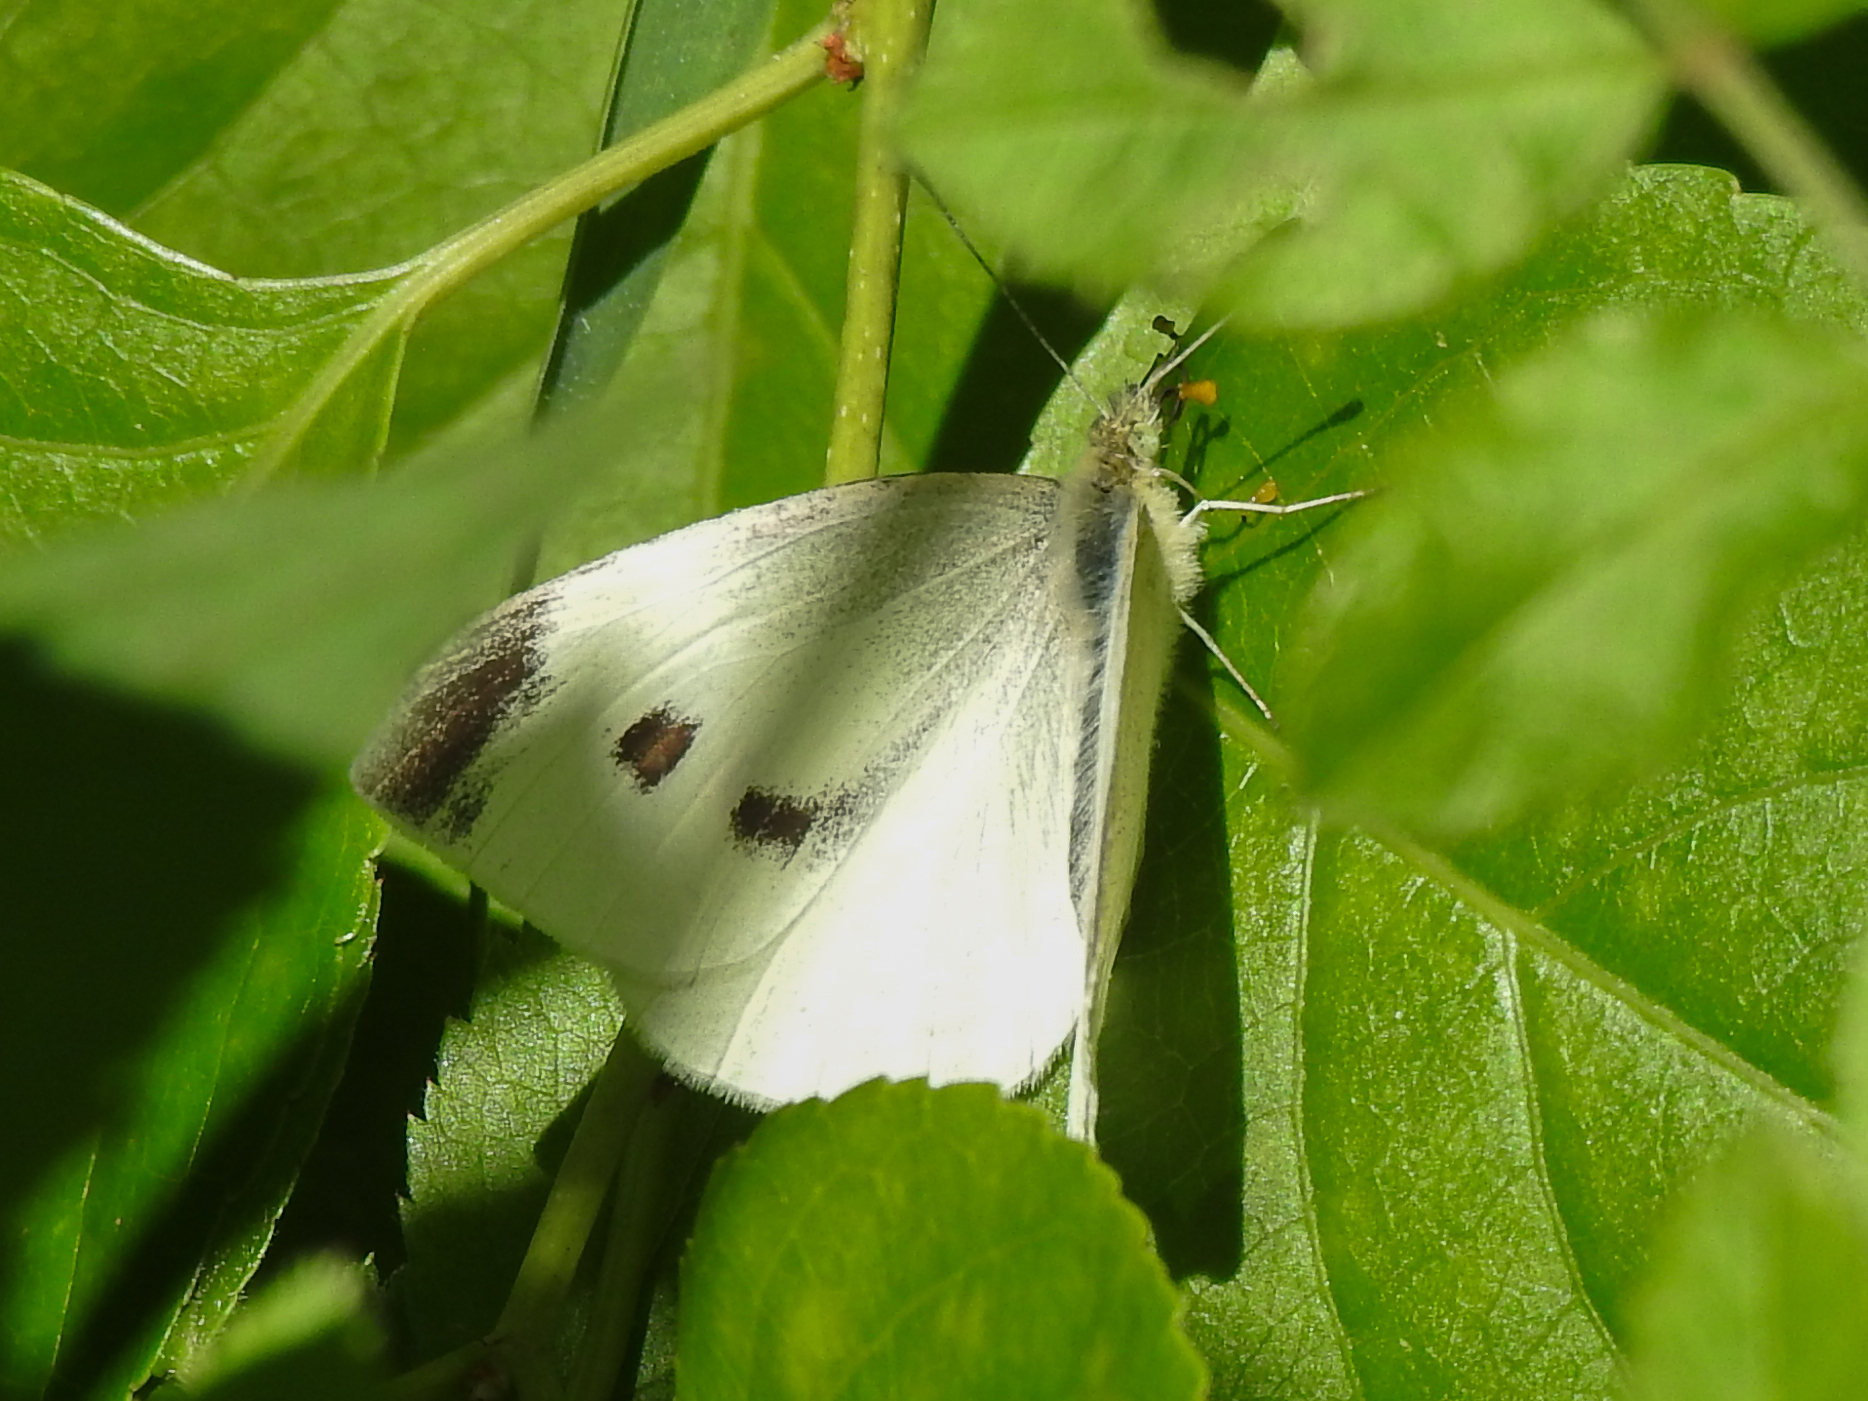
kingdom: Animalia
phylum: Arthropoda
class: Insecta
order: Lepidoptera
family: Pieridae
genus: Pieris
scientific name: Pieris rapae
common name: Small white
